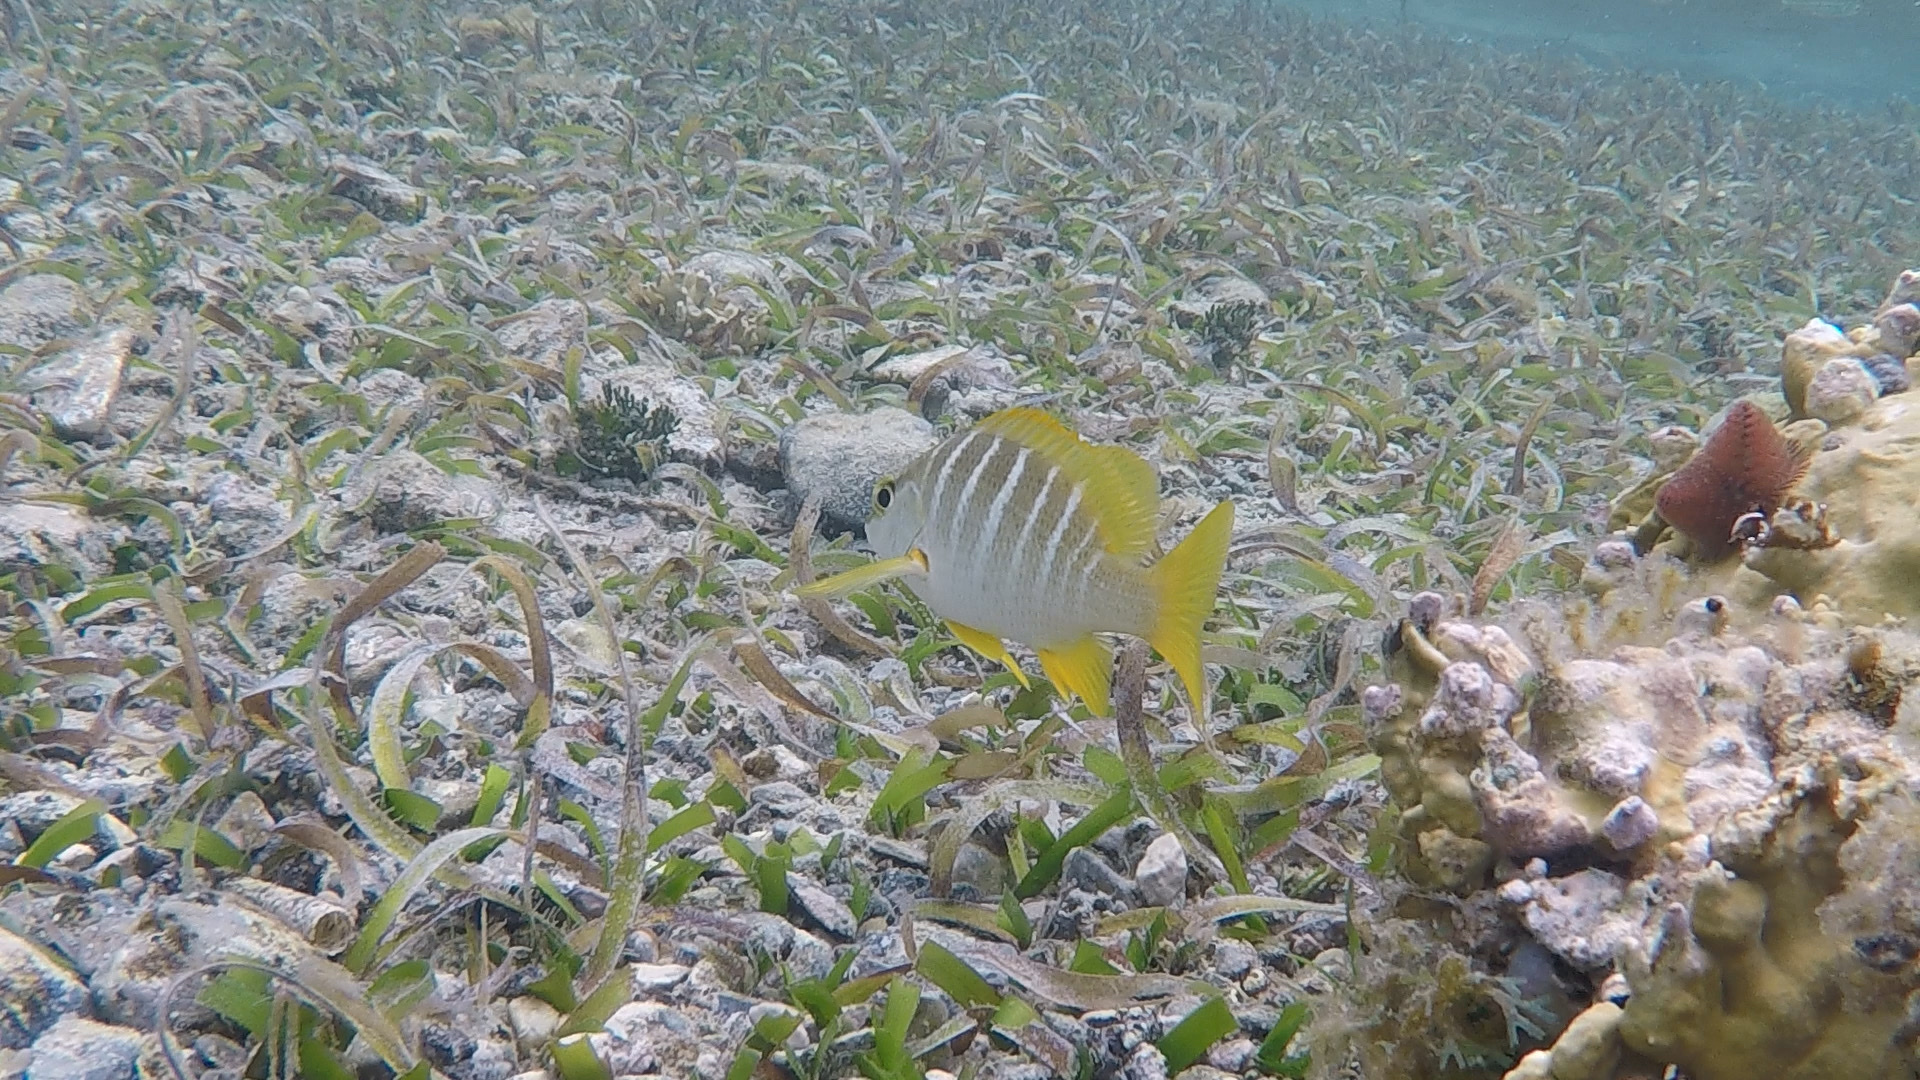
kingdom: Animalia
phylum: Chordata
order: Perciformes
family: Lutjanidae
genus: Lutjanus
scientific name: Lutjanus apodus
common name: Schoolmaster
